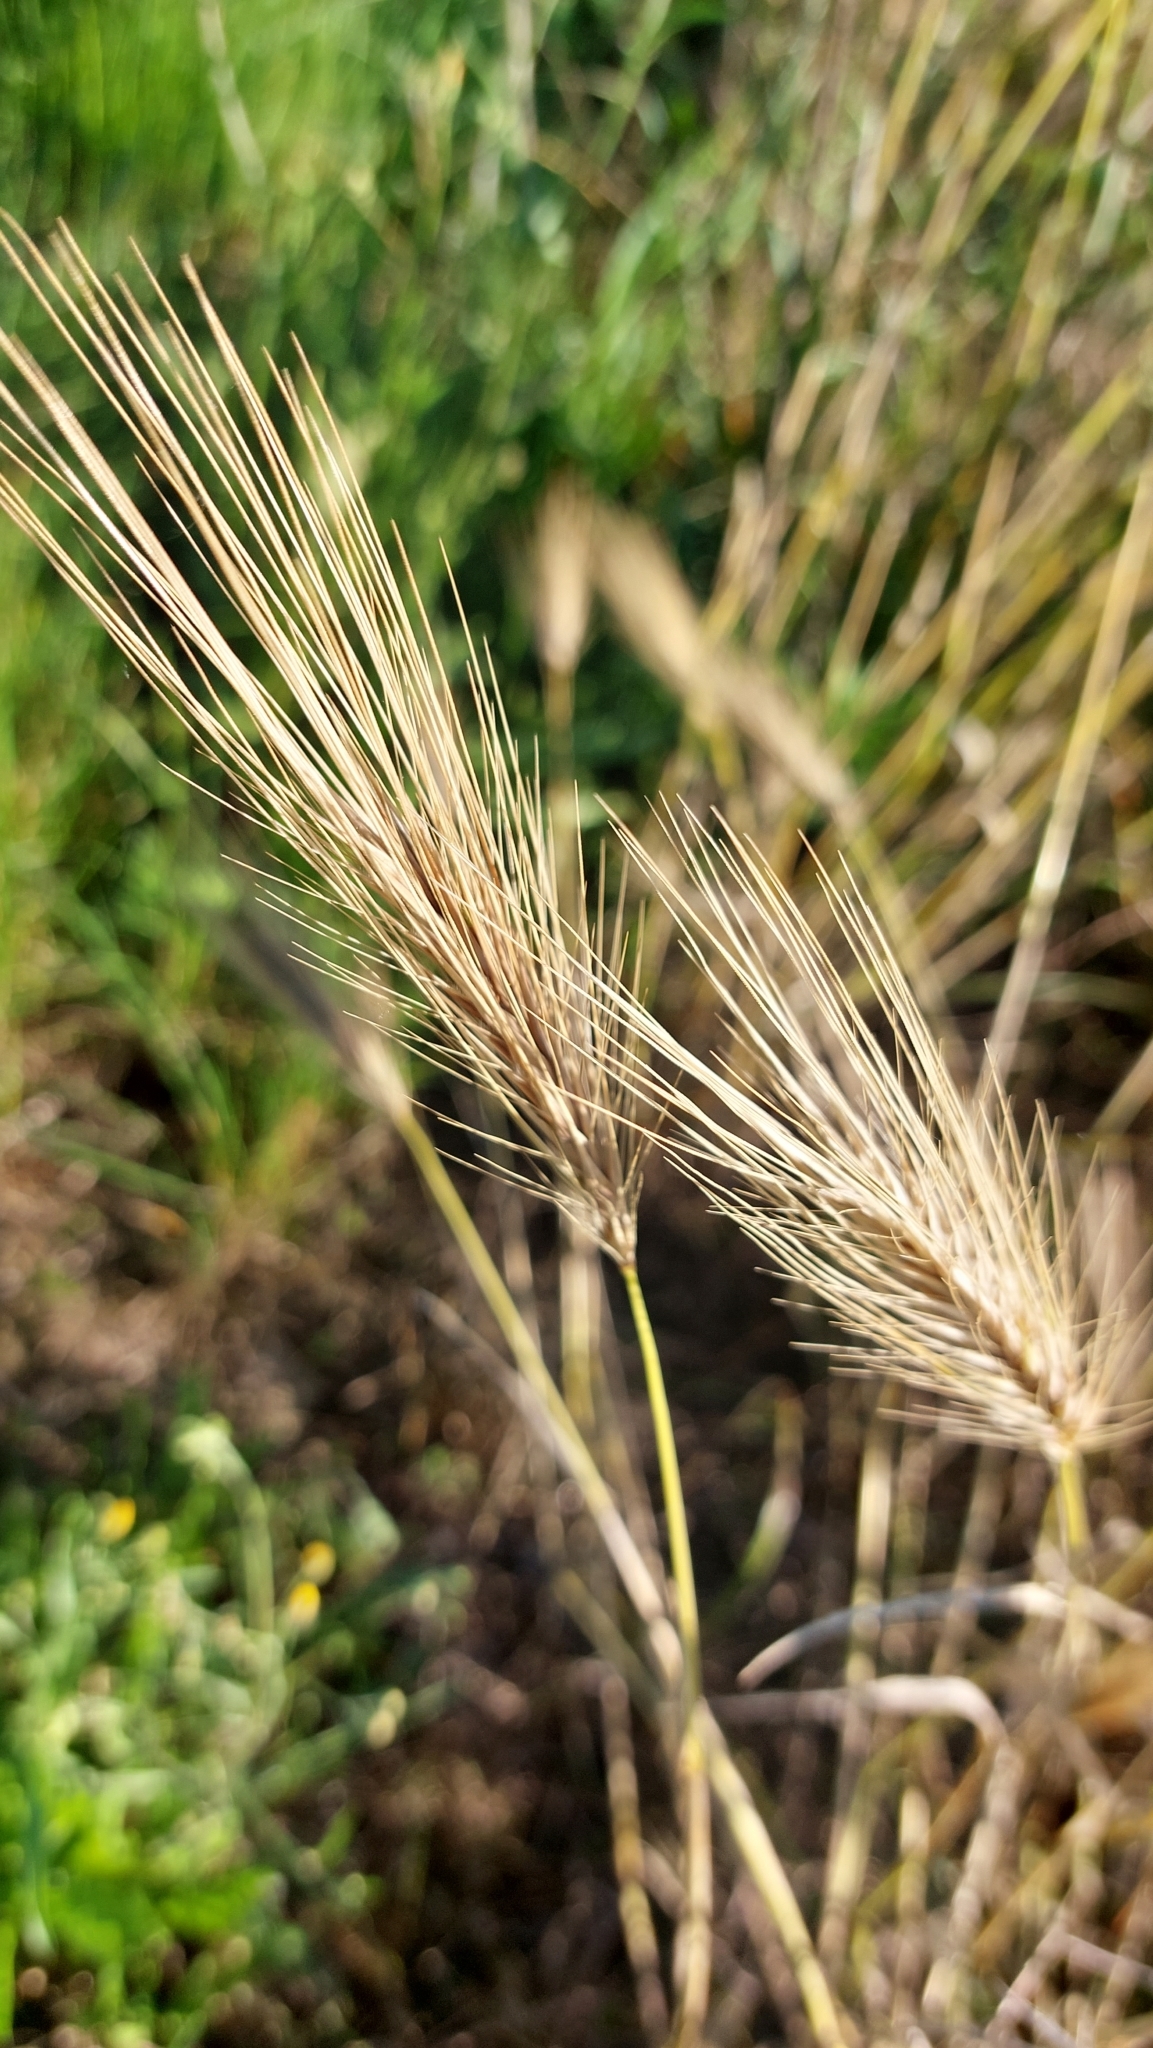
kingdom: Plantae
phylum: Tracheophyta
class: Liliopsida
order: Poales
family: Poaceae
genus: Hordeum
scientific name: Hordeum murinum
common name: Wall barley
